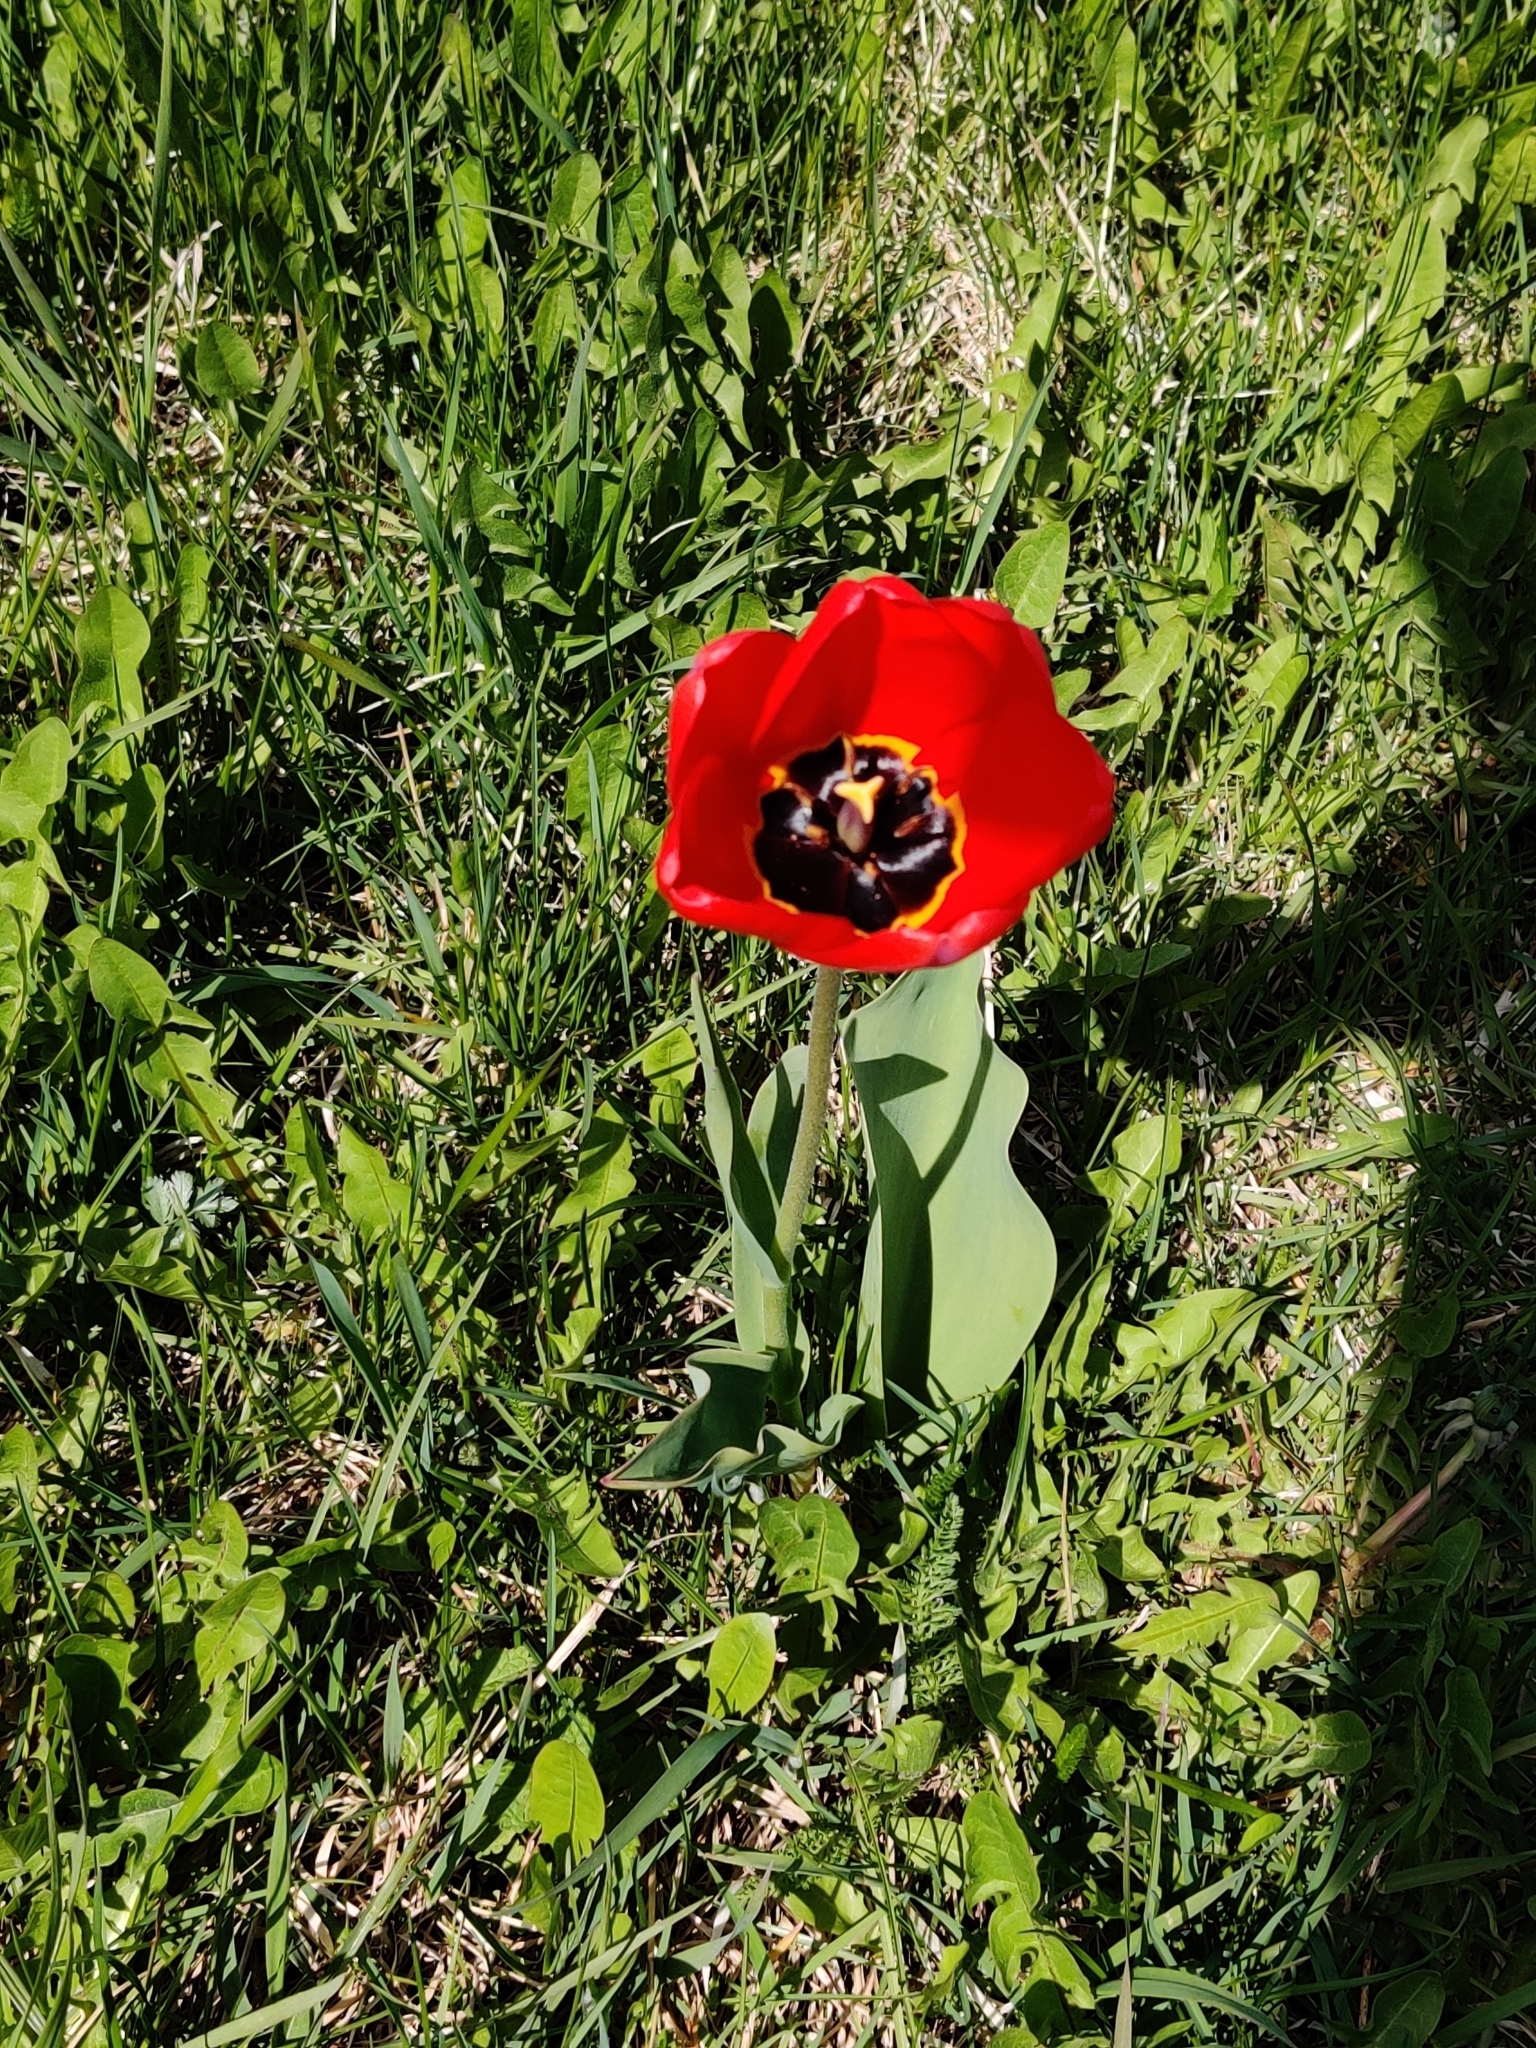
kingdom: Plantae
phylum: Tracheophyta
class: Liliopsida
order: Liliales
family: Liliaceae
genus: Tulipa
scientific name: Tulipa gesneriana
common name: Garden tulip
